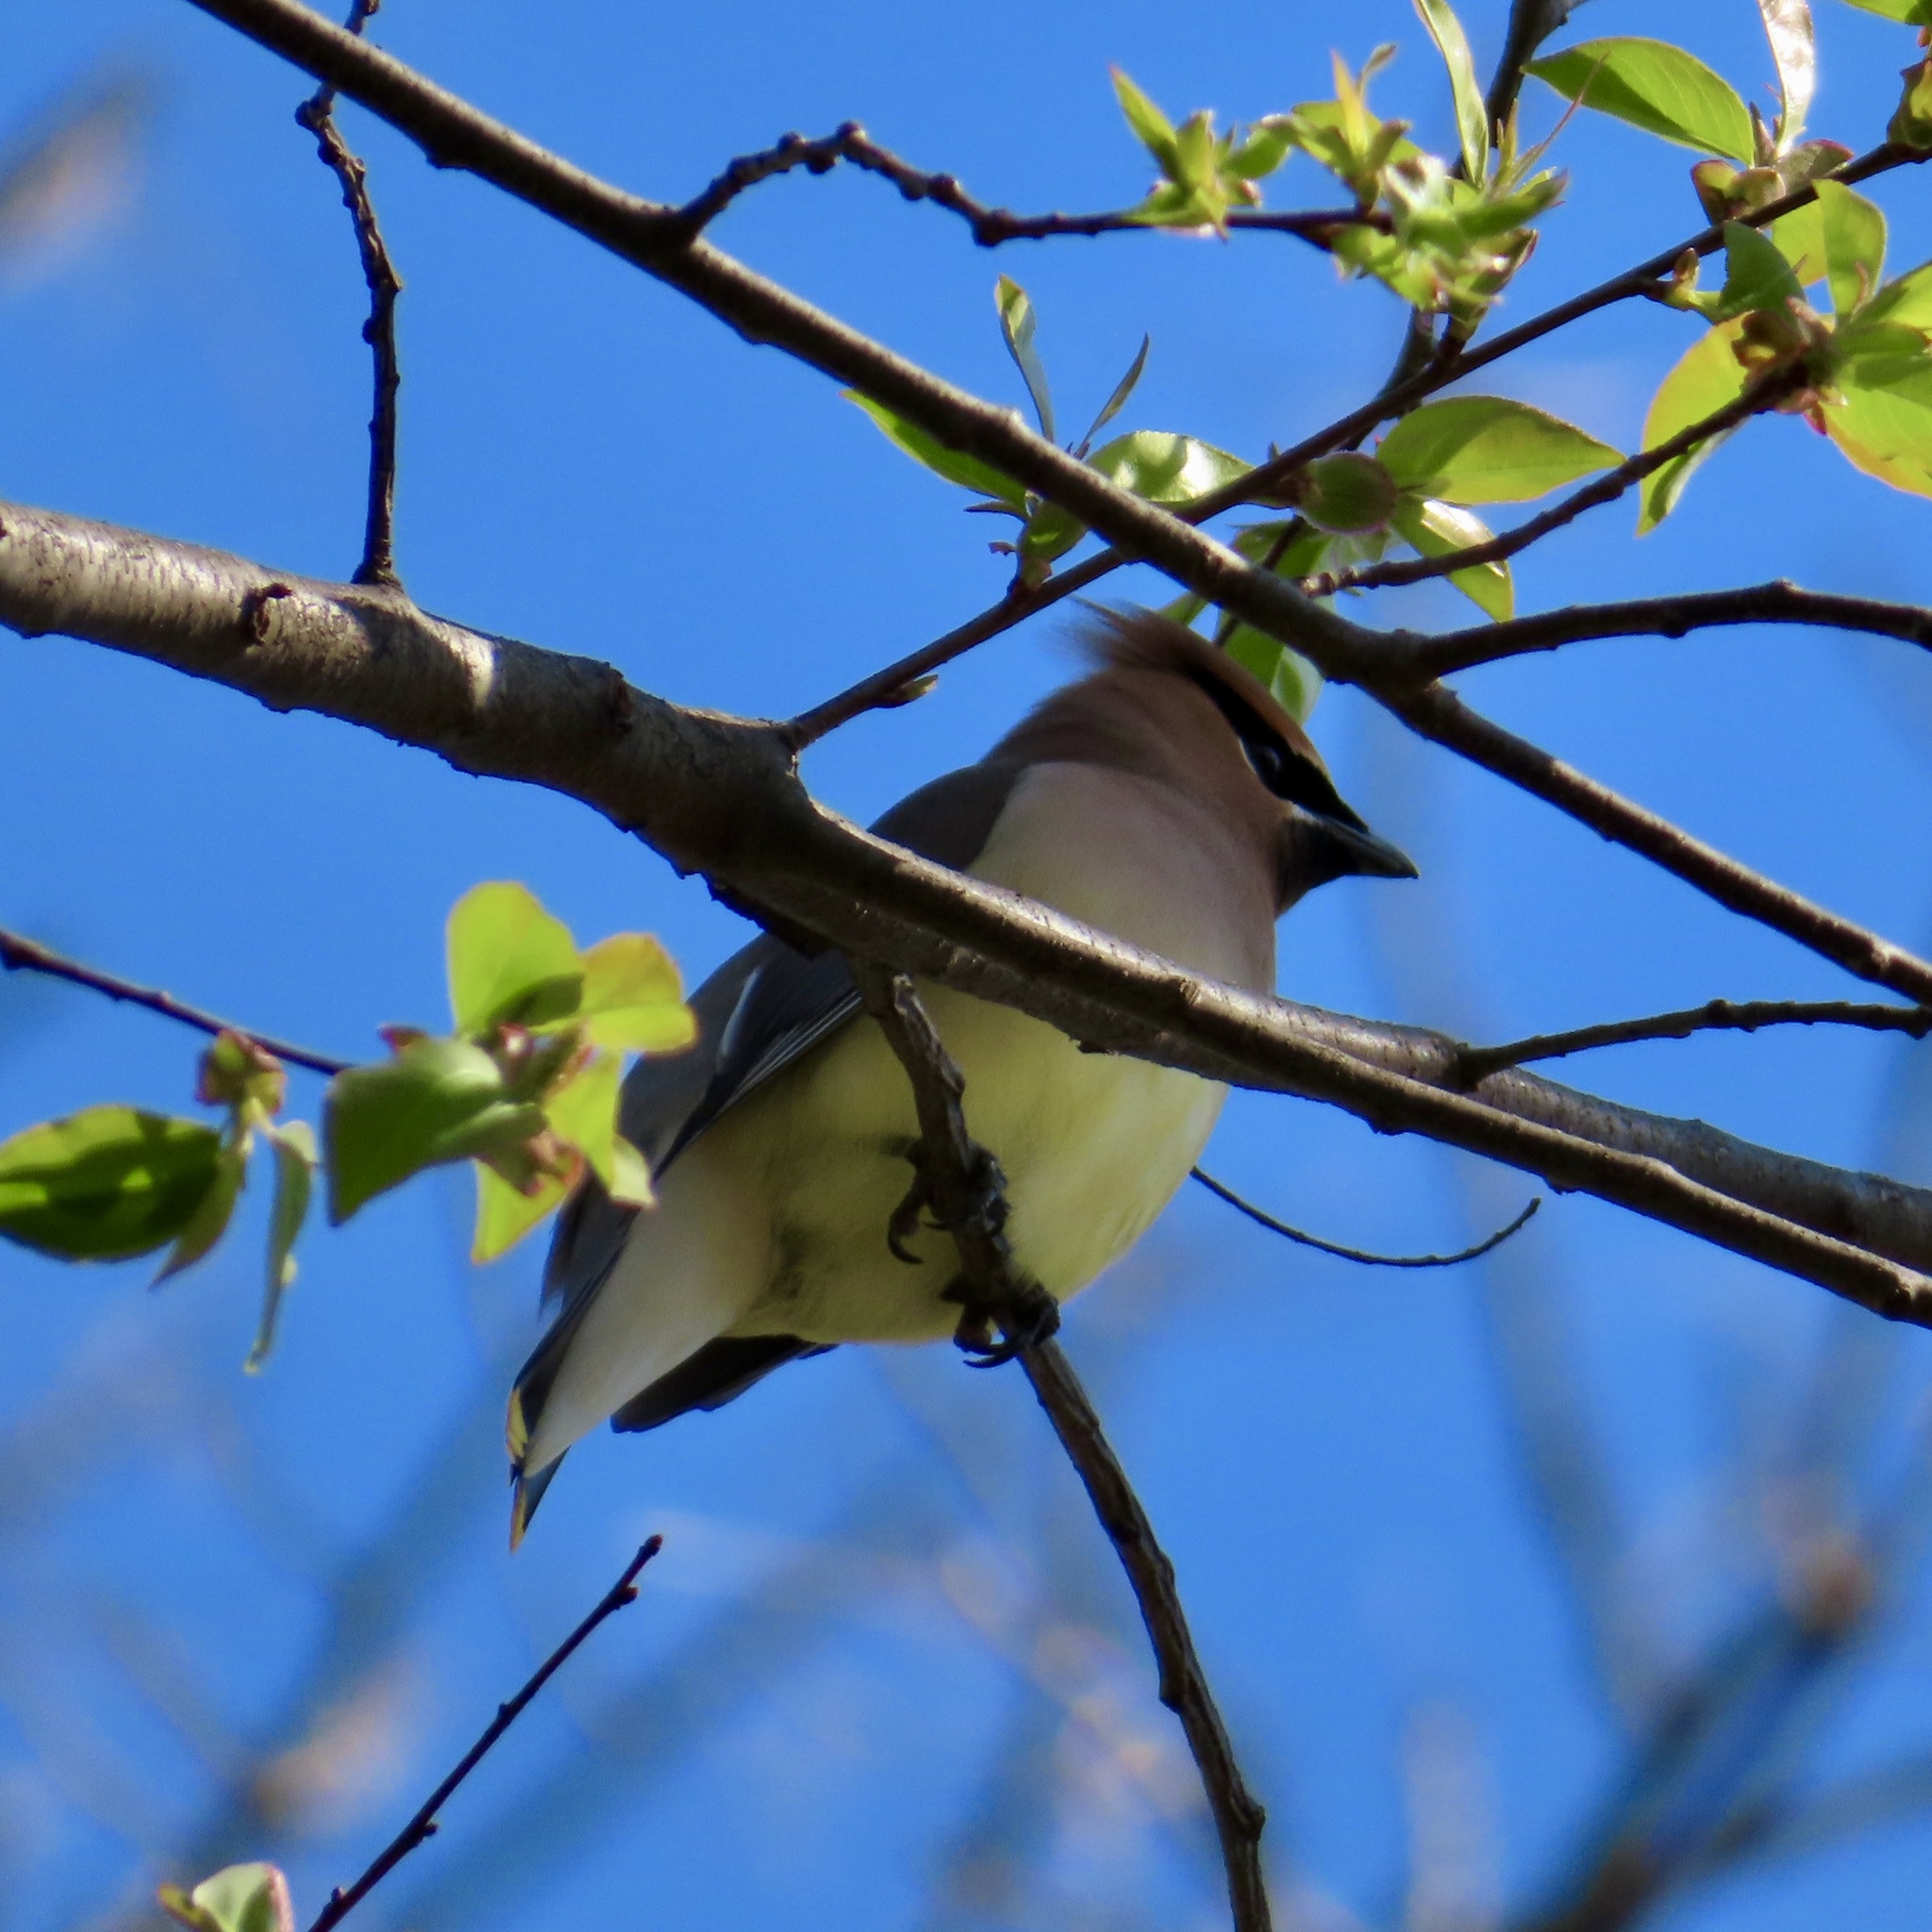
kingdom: Animalia
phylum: Chordata
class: Aves
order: Passeriformes
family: Bombycillidae
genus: Bombycilla
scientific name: Bombycilla cedrorum
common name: Cedar waxwing
